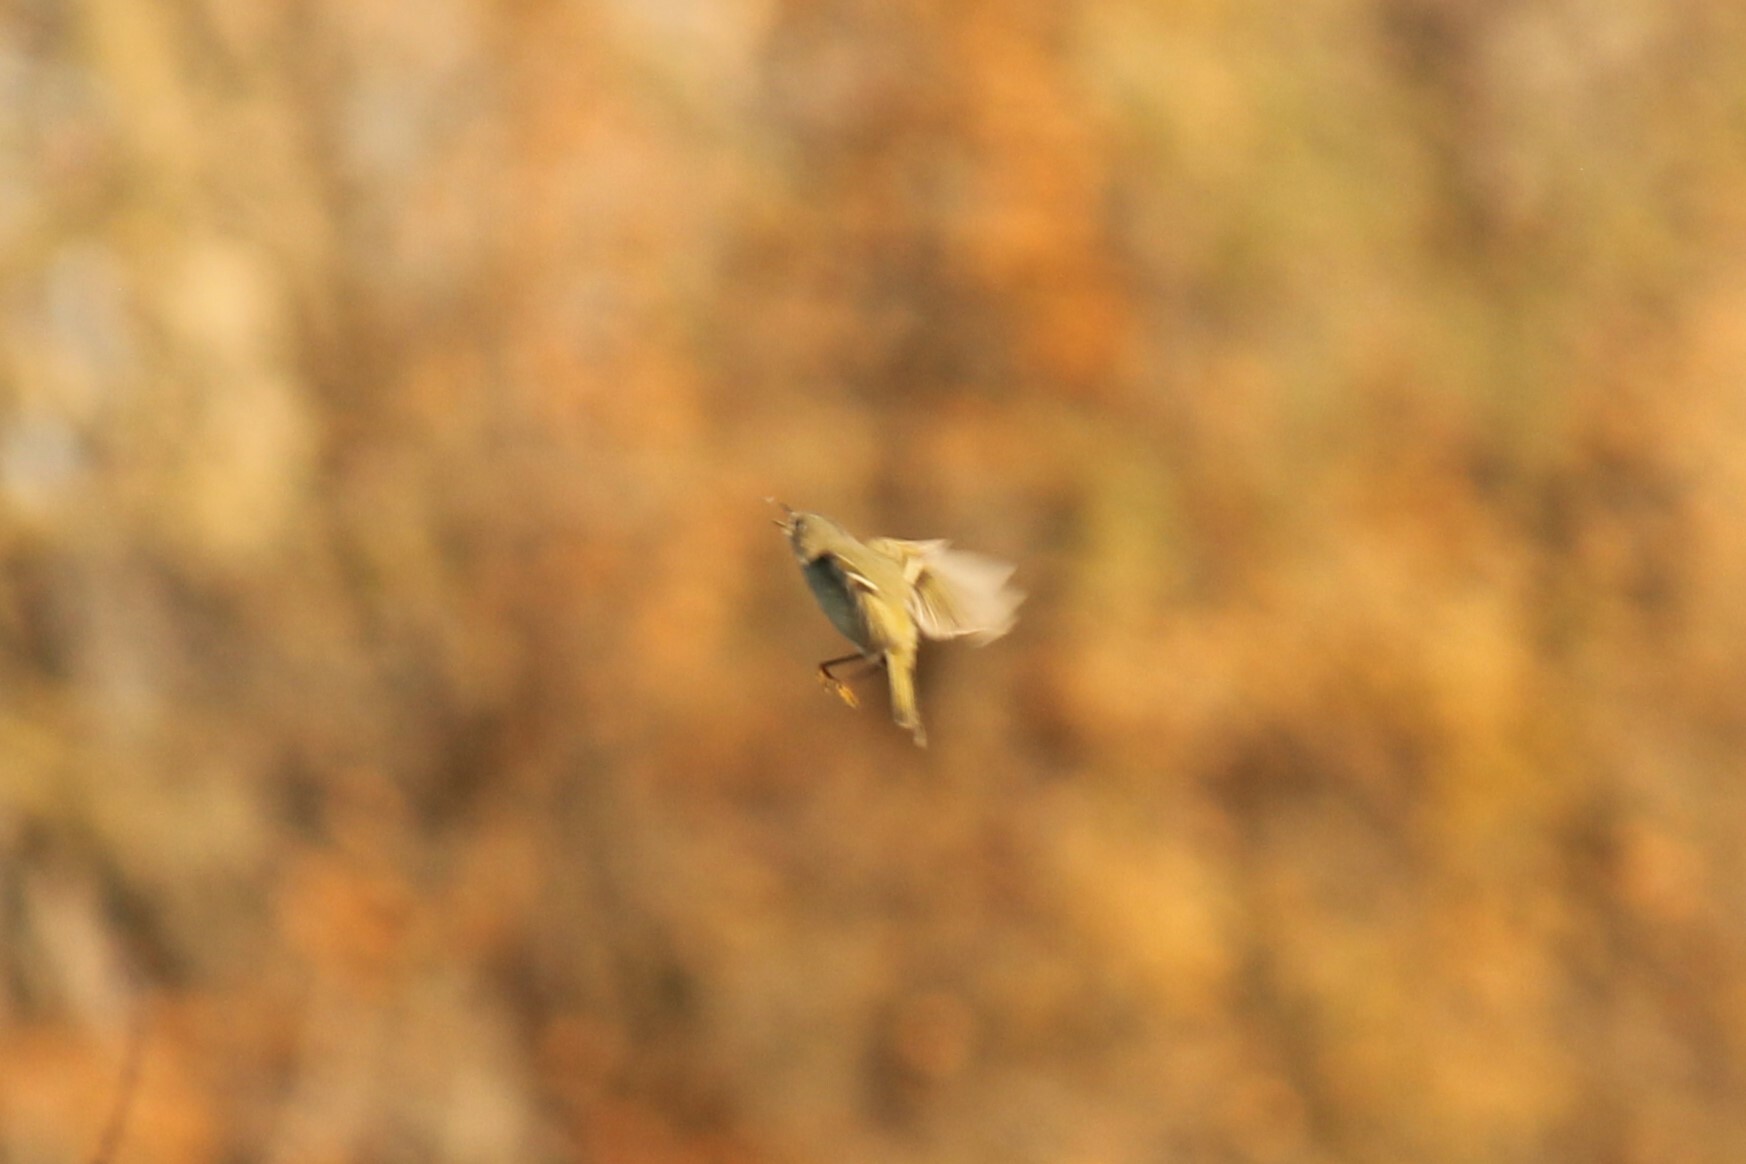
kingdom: Animalia
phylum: Chordata
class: Aves
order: Passeriformes
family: Regulidae
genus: Regulus
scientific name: Regulus calendula
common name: Ruby-crowned kinglet
